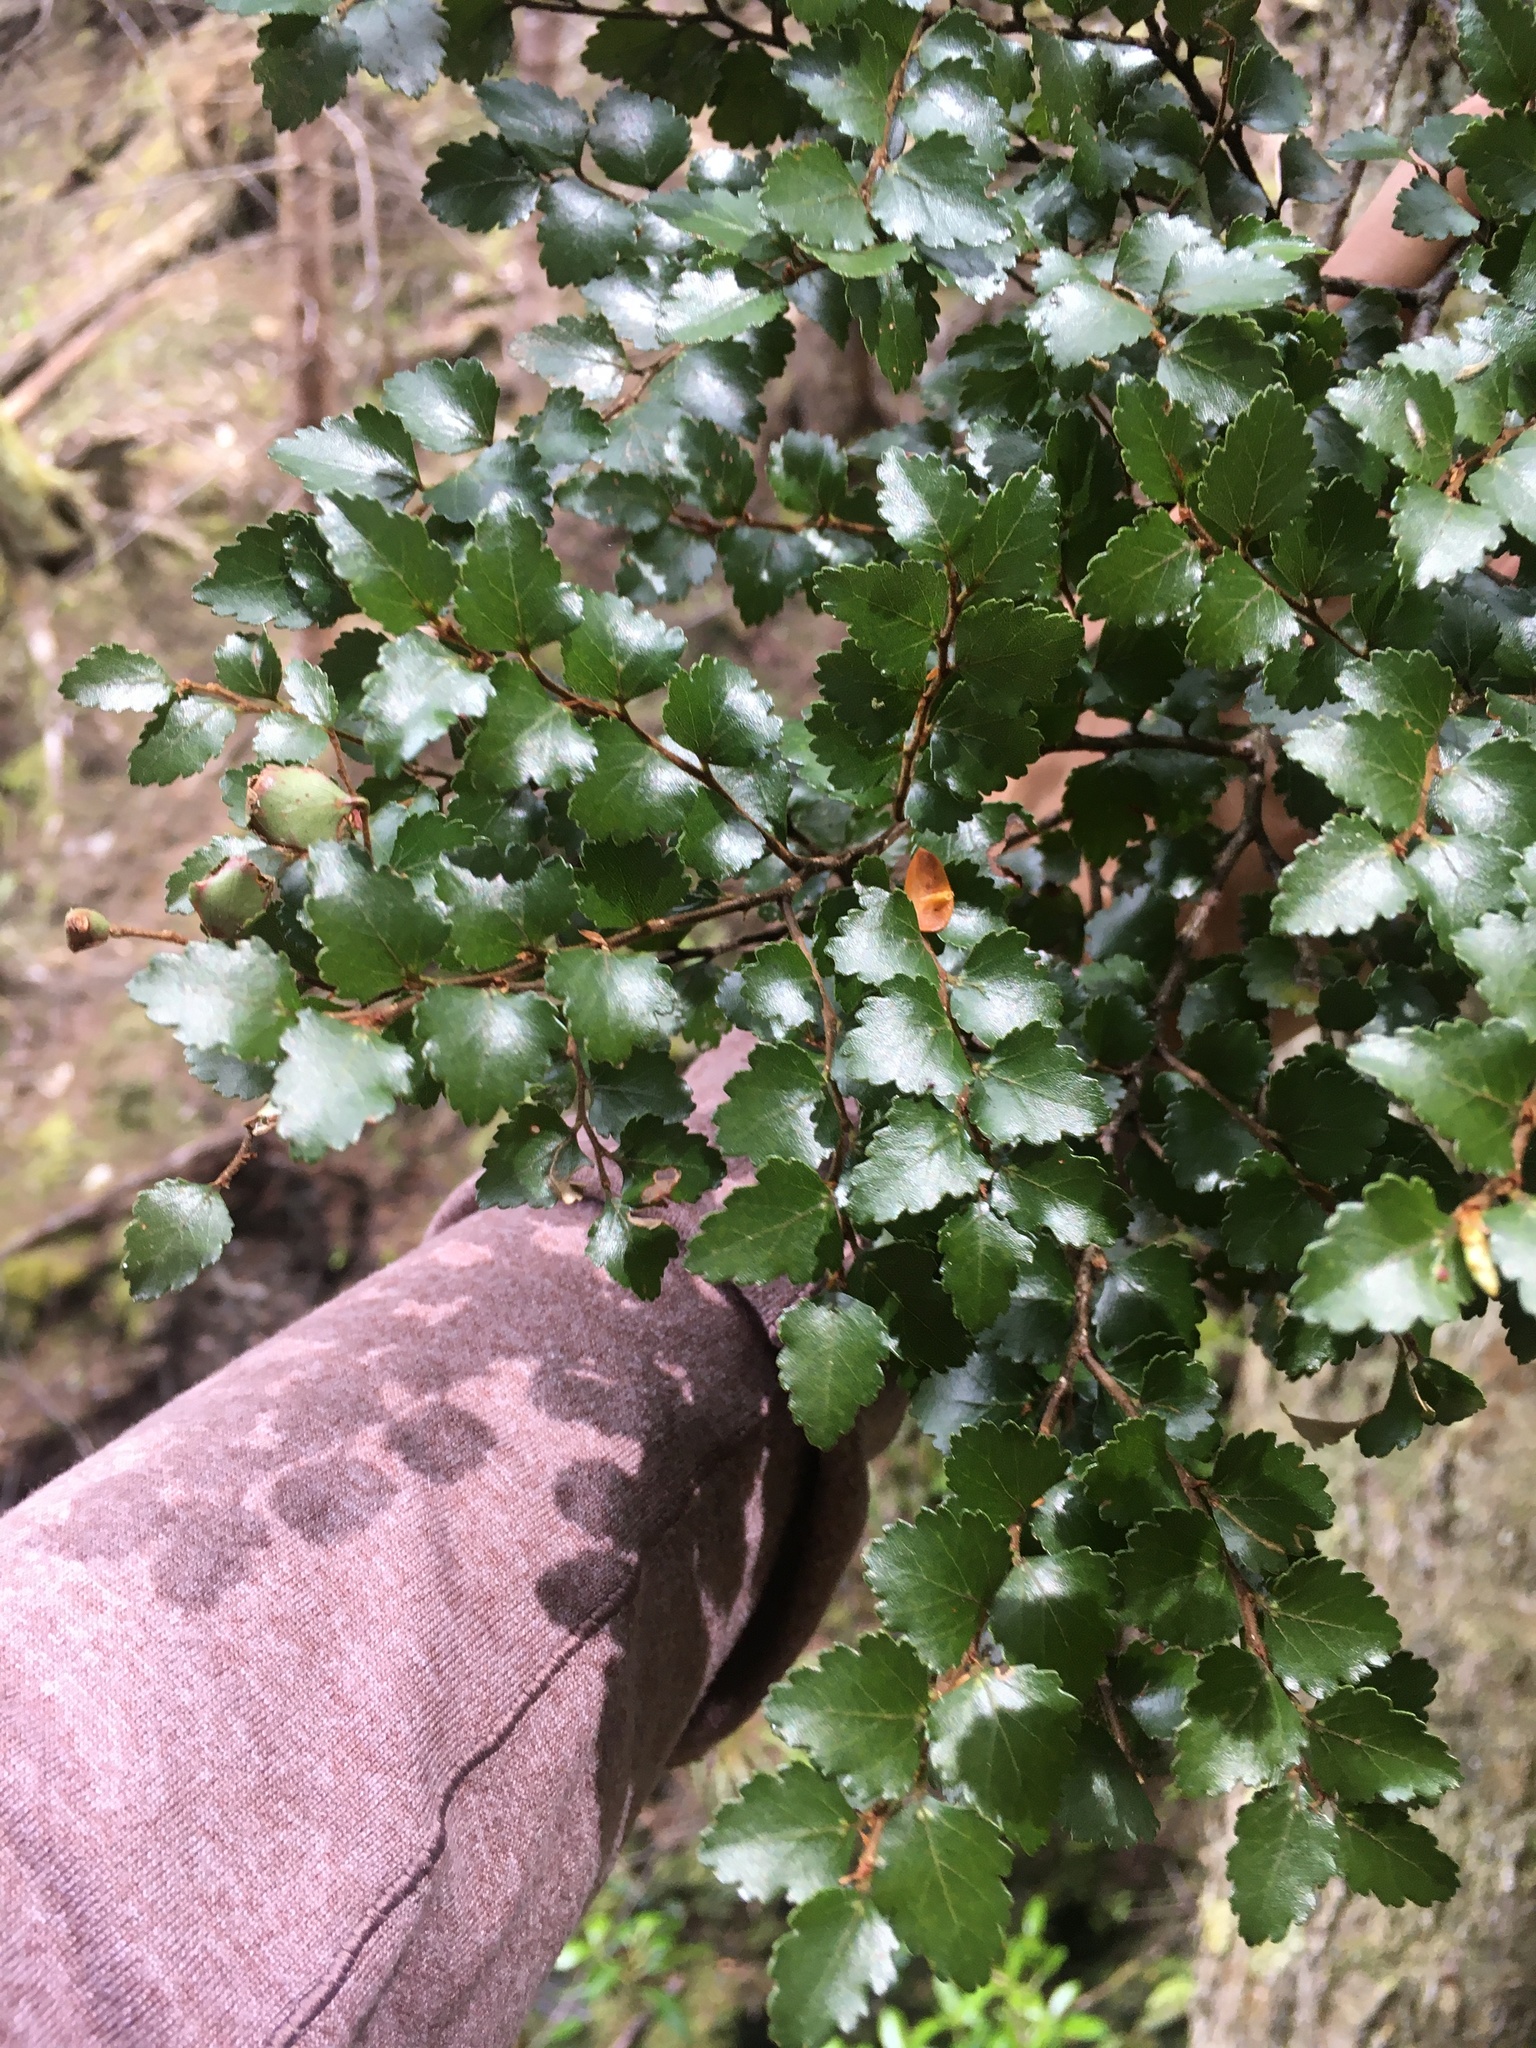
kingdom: Plantae
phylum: Tracheophyta
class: Magnoliopsida
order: Fagales
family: Nothofagaceae
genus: Nothofagus
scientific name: Nothofagus menziesii
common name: Silver beech
